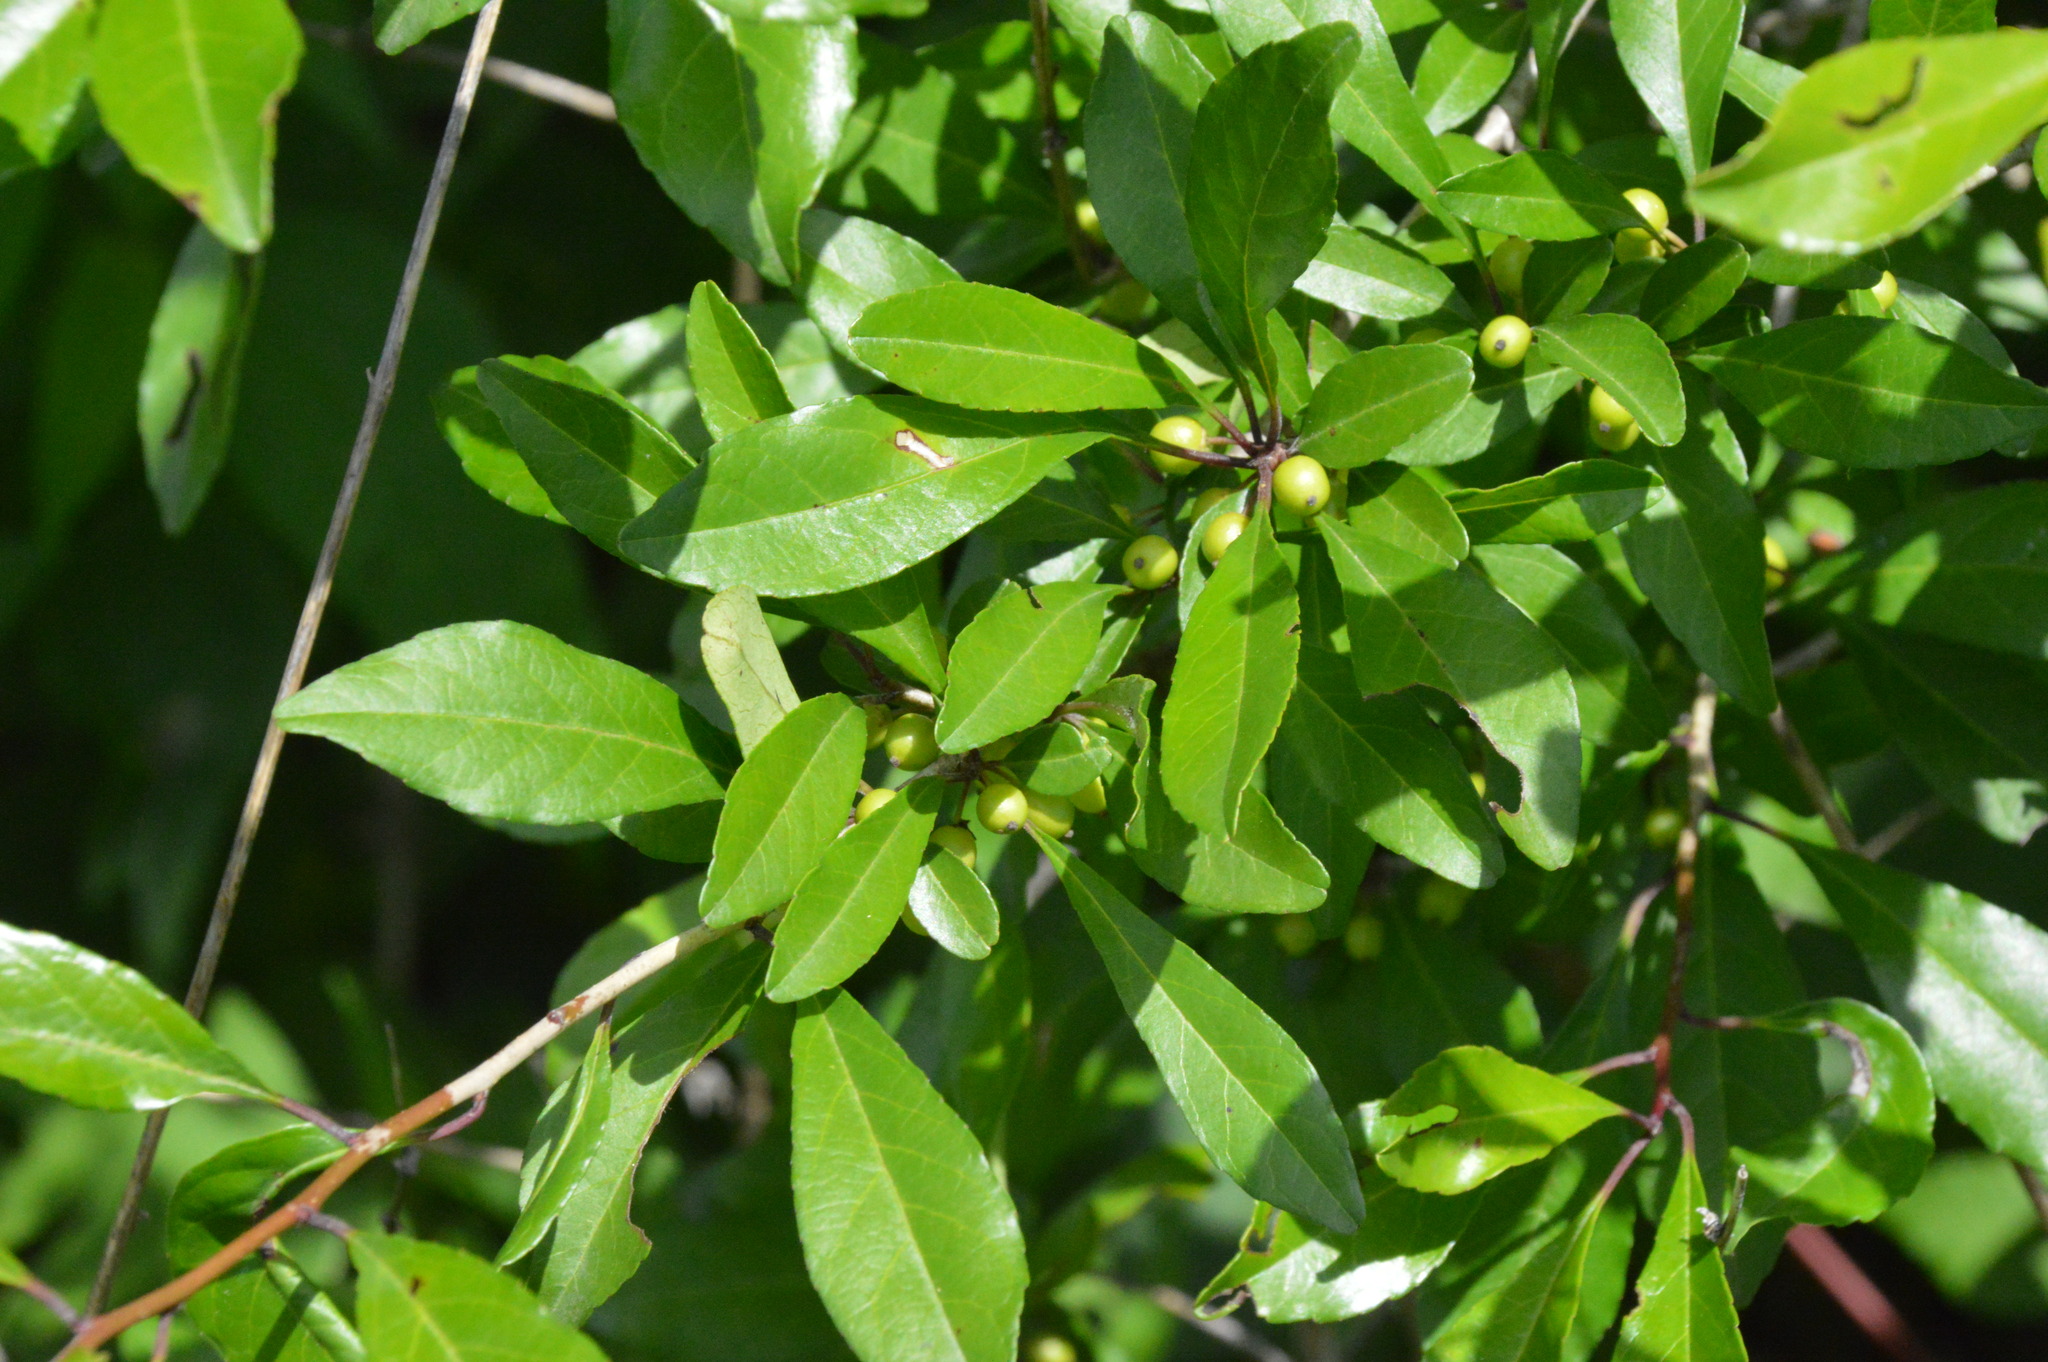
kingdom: Plantae
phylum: Tracheophyta
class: Magnoliopsida
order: Aquifoliales
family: Aquifoliaceae
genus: Ilex
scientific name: Ilex decidua
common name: Possum-haw
